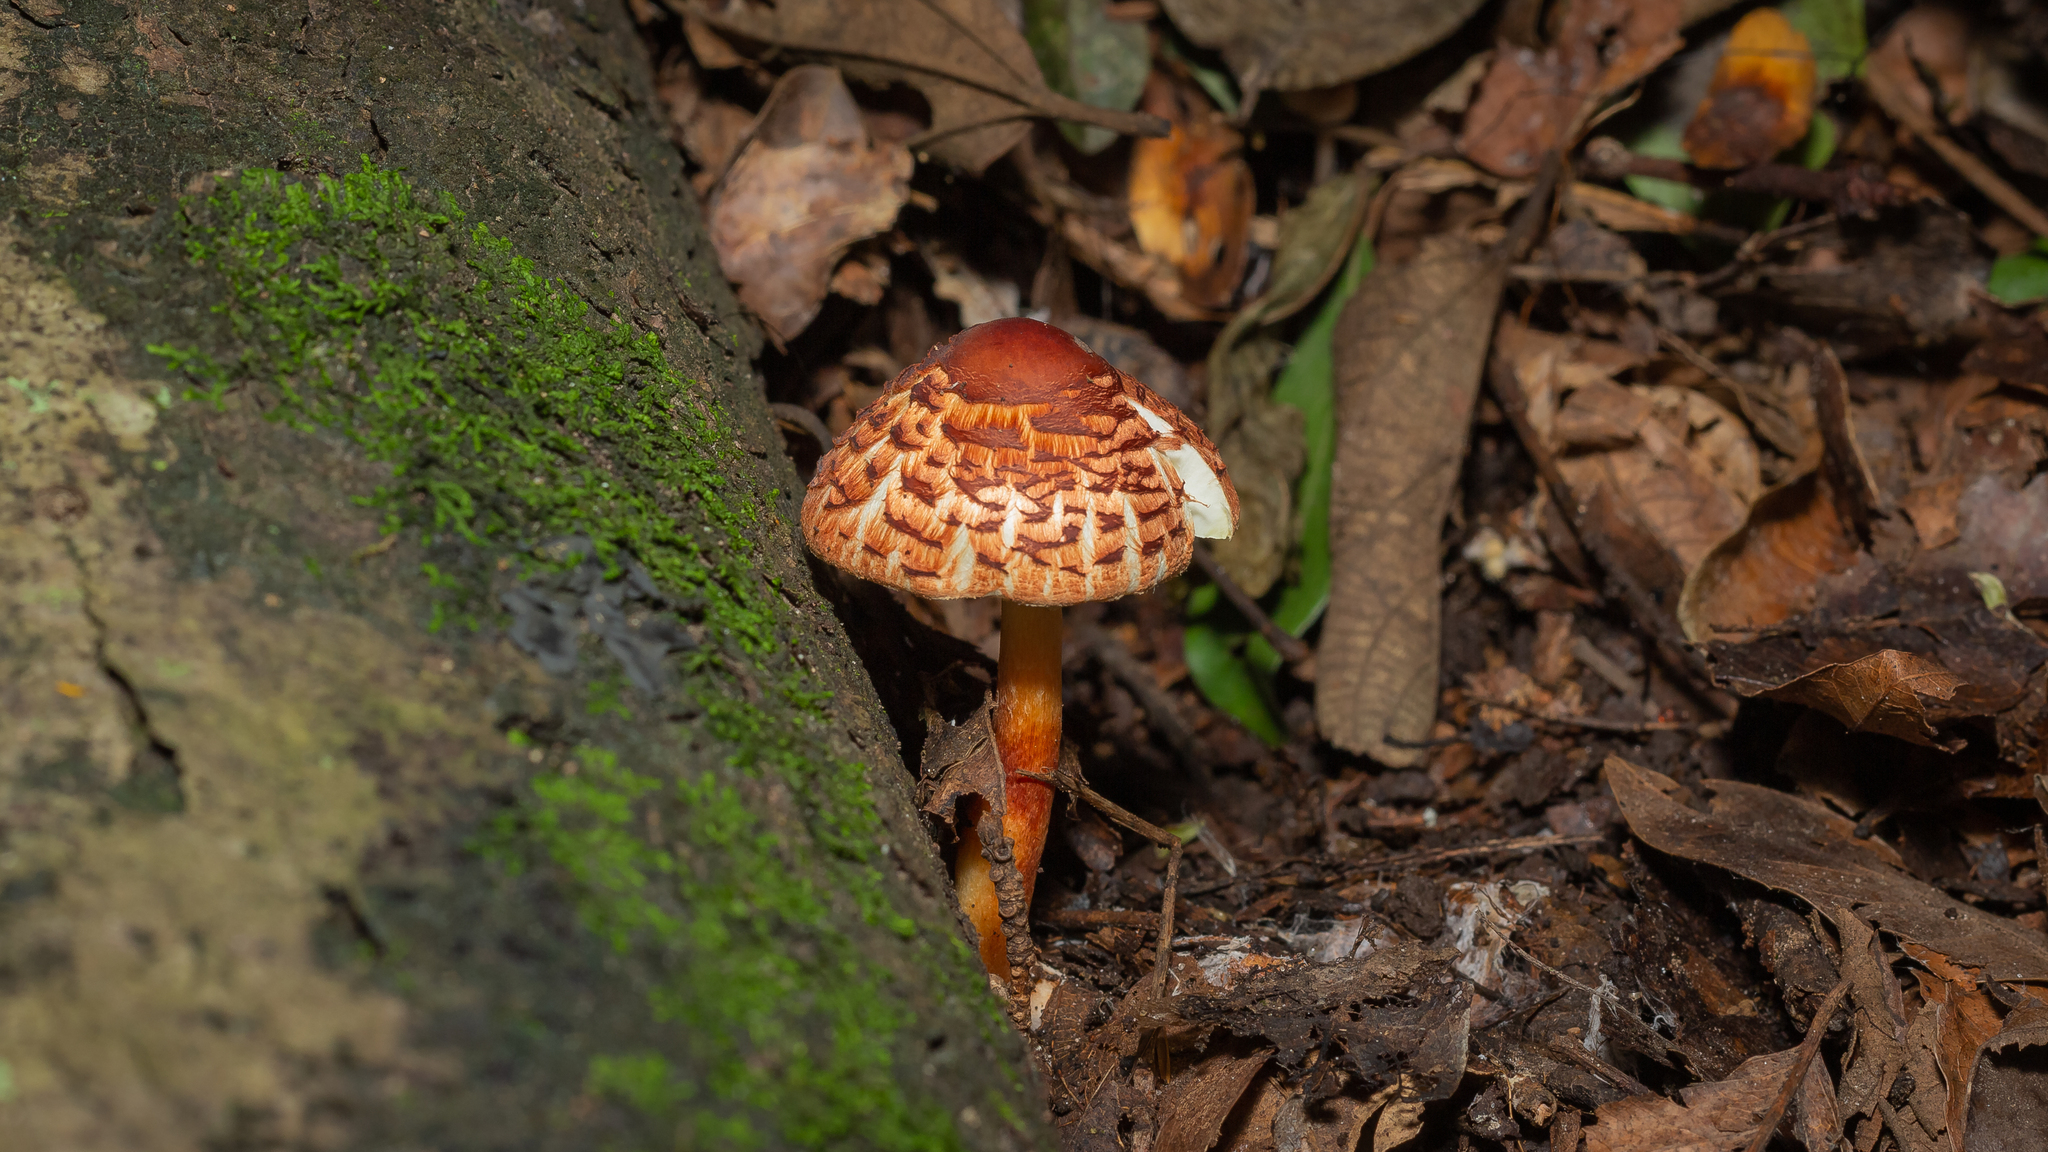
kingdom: Fungi
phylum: Basidiomycota
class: Agaricomycetes
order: Agaricales
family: Agaricaceae
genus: Rugosospora
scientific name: Rugosospora pseudorubiginosa
